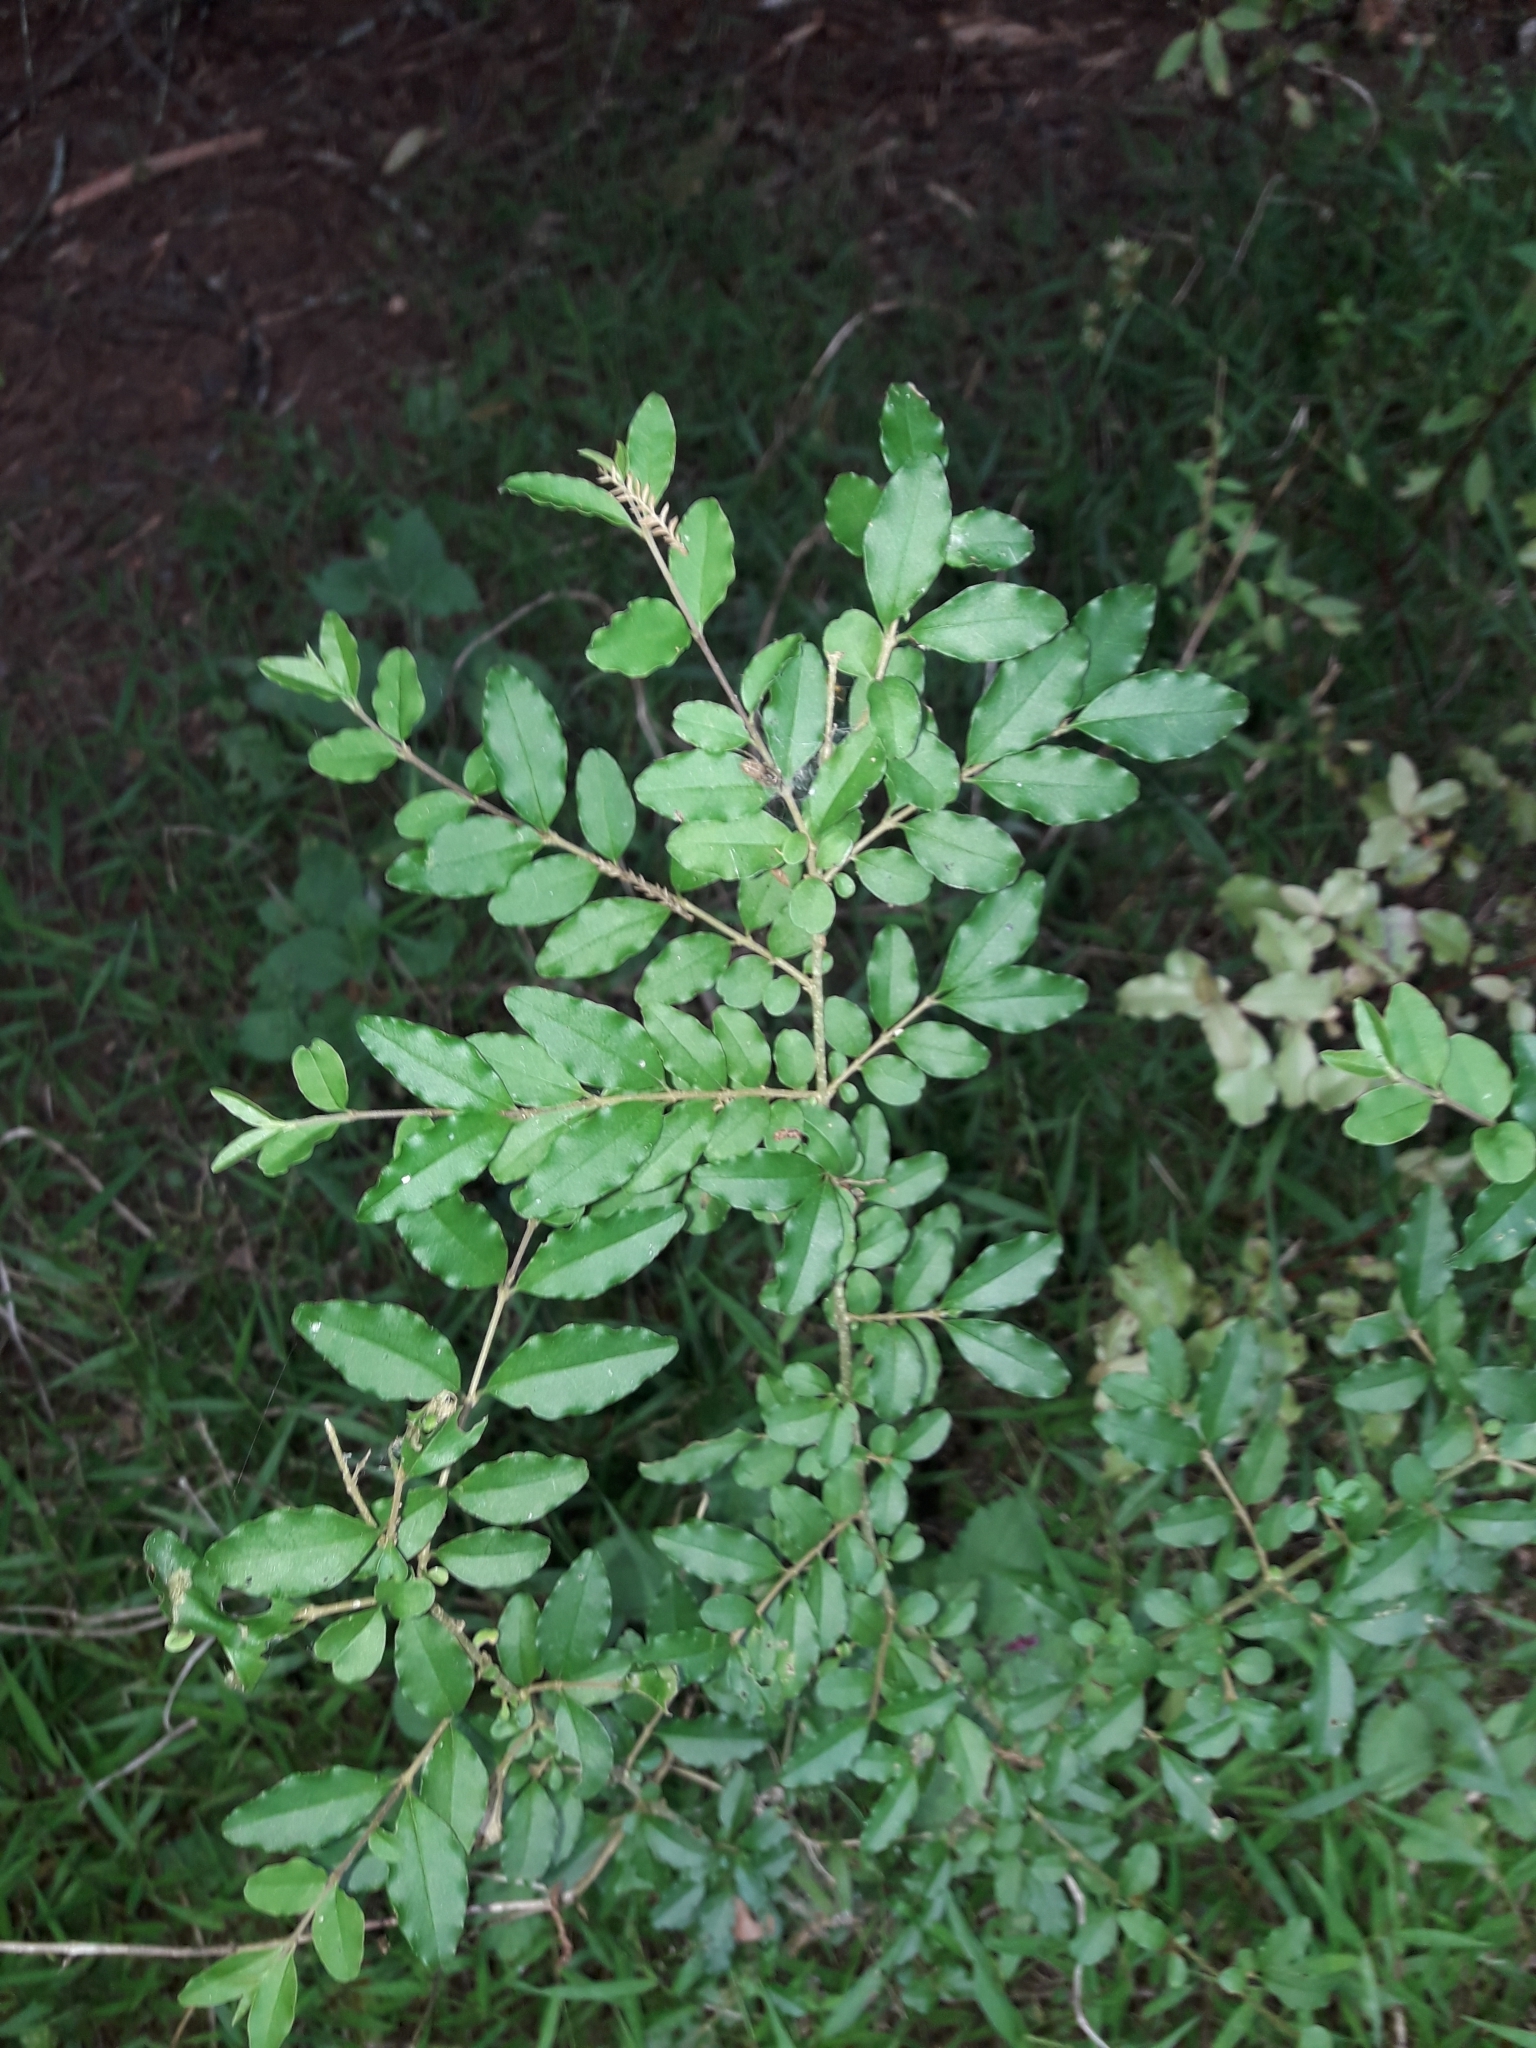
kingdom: Plantae
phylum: Tracheophyta
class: Magnoliopsida
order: Lamiales
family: Oleaceae
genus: Ligustrum
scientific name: Ligustrum sinense
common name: Chinese privet
